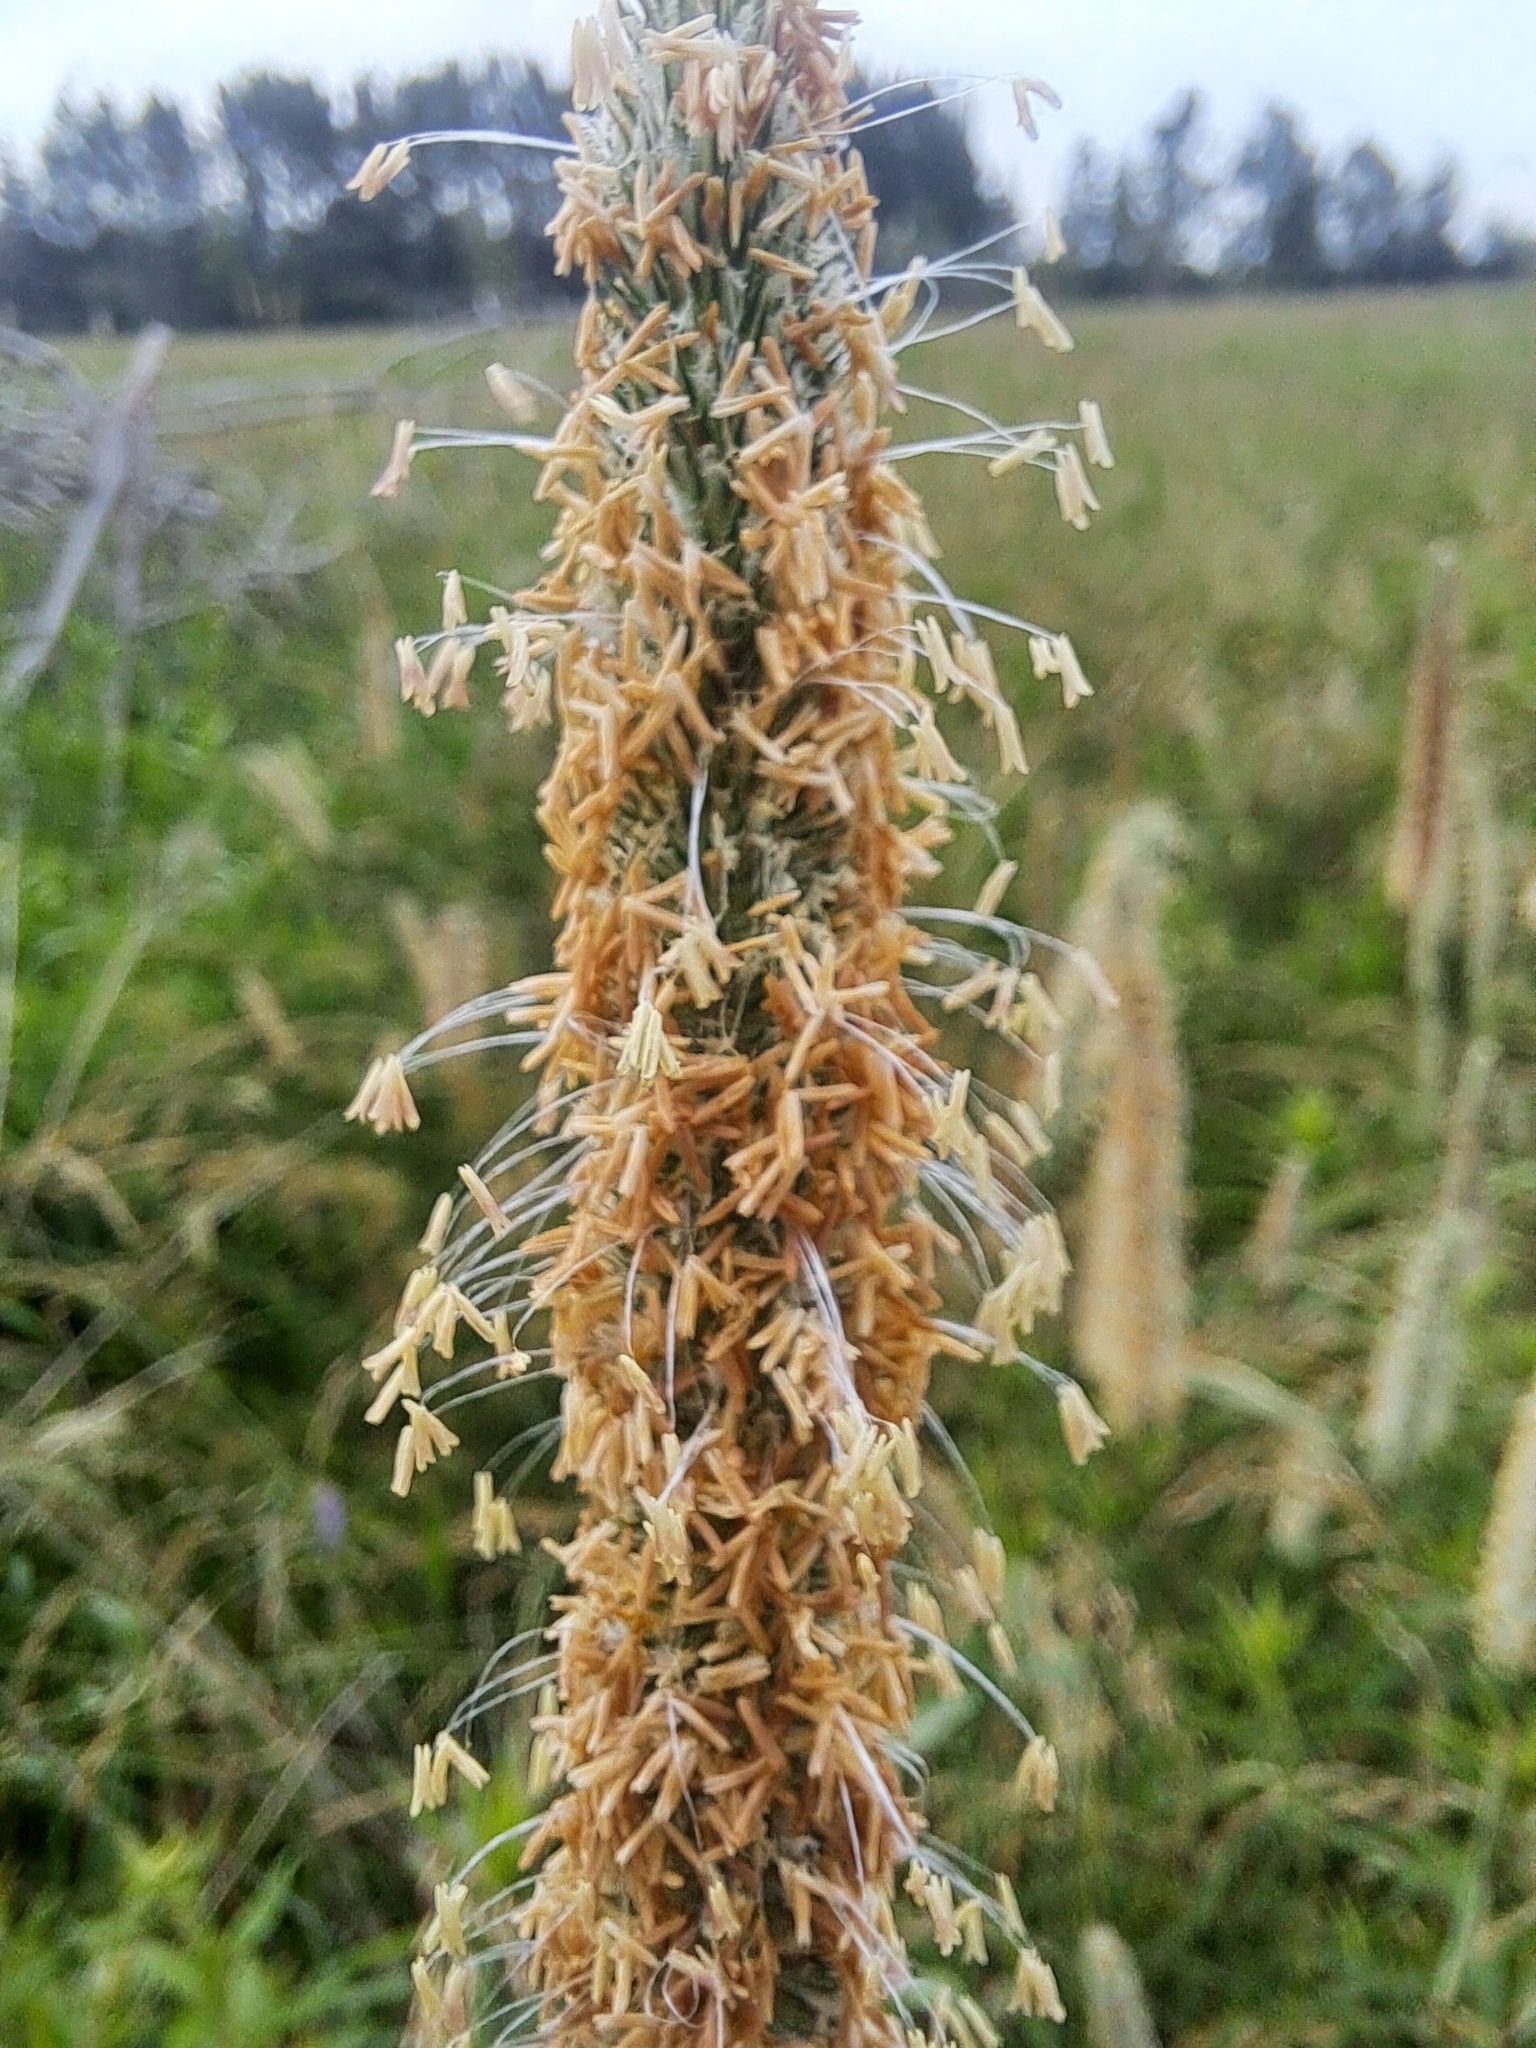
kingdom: Plantae
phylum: Tracheophyta
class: Liliopsida
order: Poales
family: Poaceae
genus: Phleum
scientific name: Phleum pratense
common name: Timothy grass
